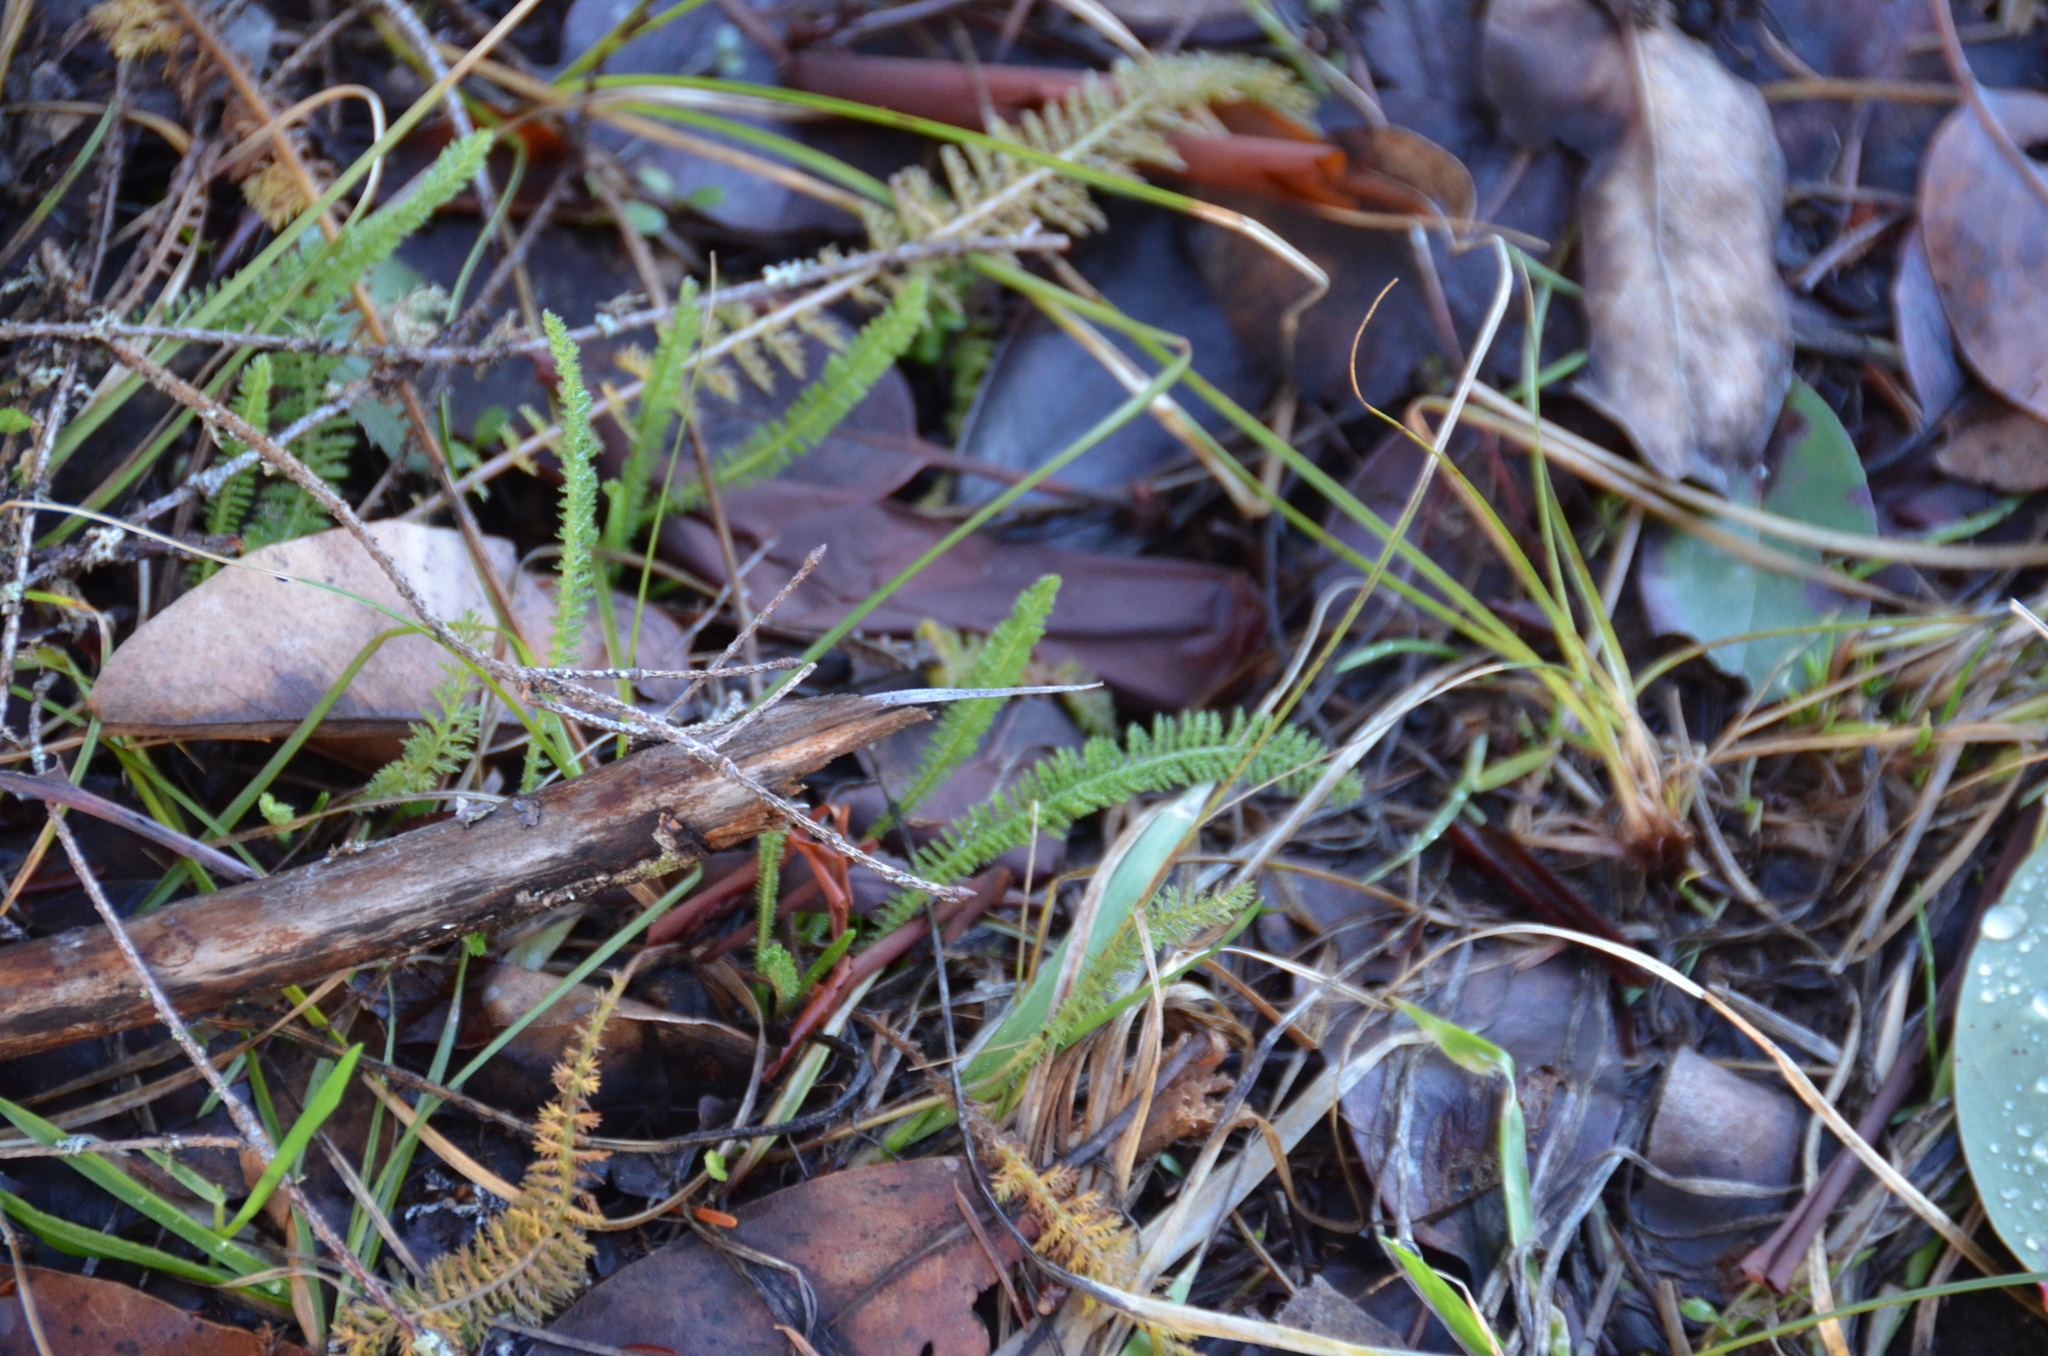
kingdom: Plantae
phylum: Tracheophyta
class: Magnoliopsida
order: Asterales
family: Asteraceae
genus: Achillea
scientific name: Achillea millefolium
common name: Yarrow
